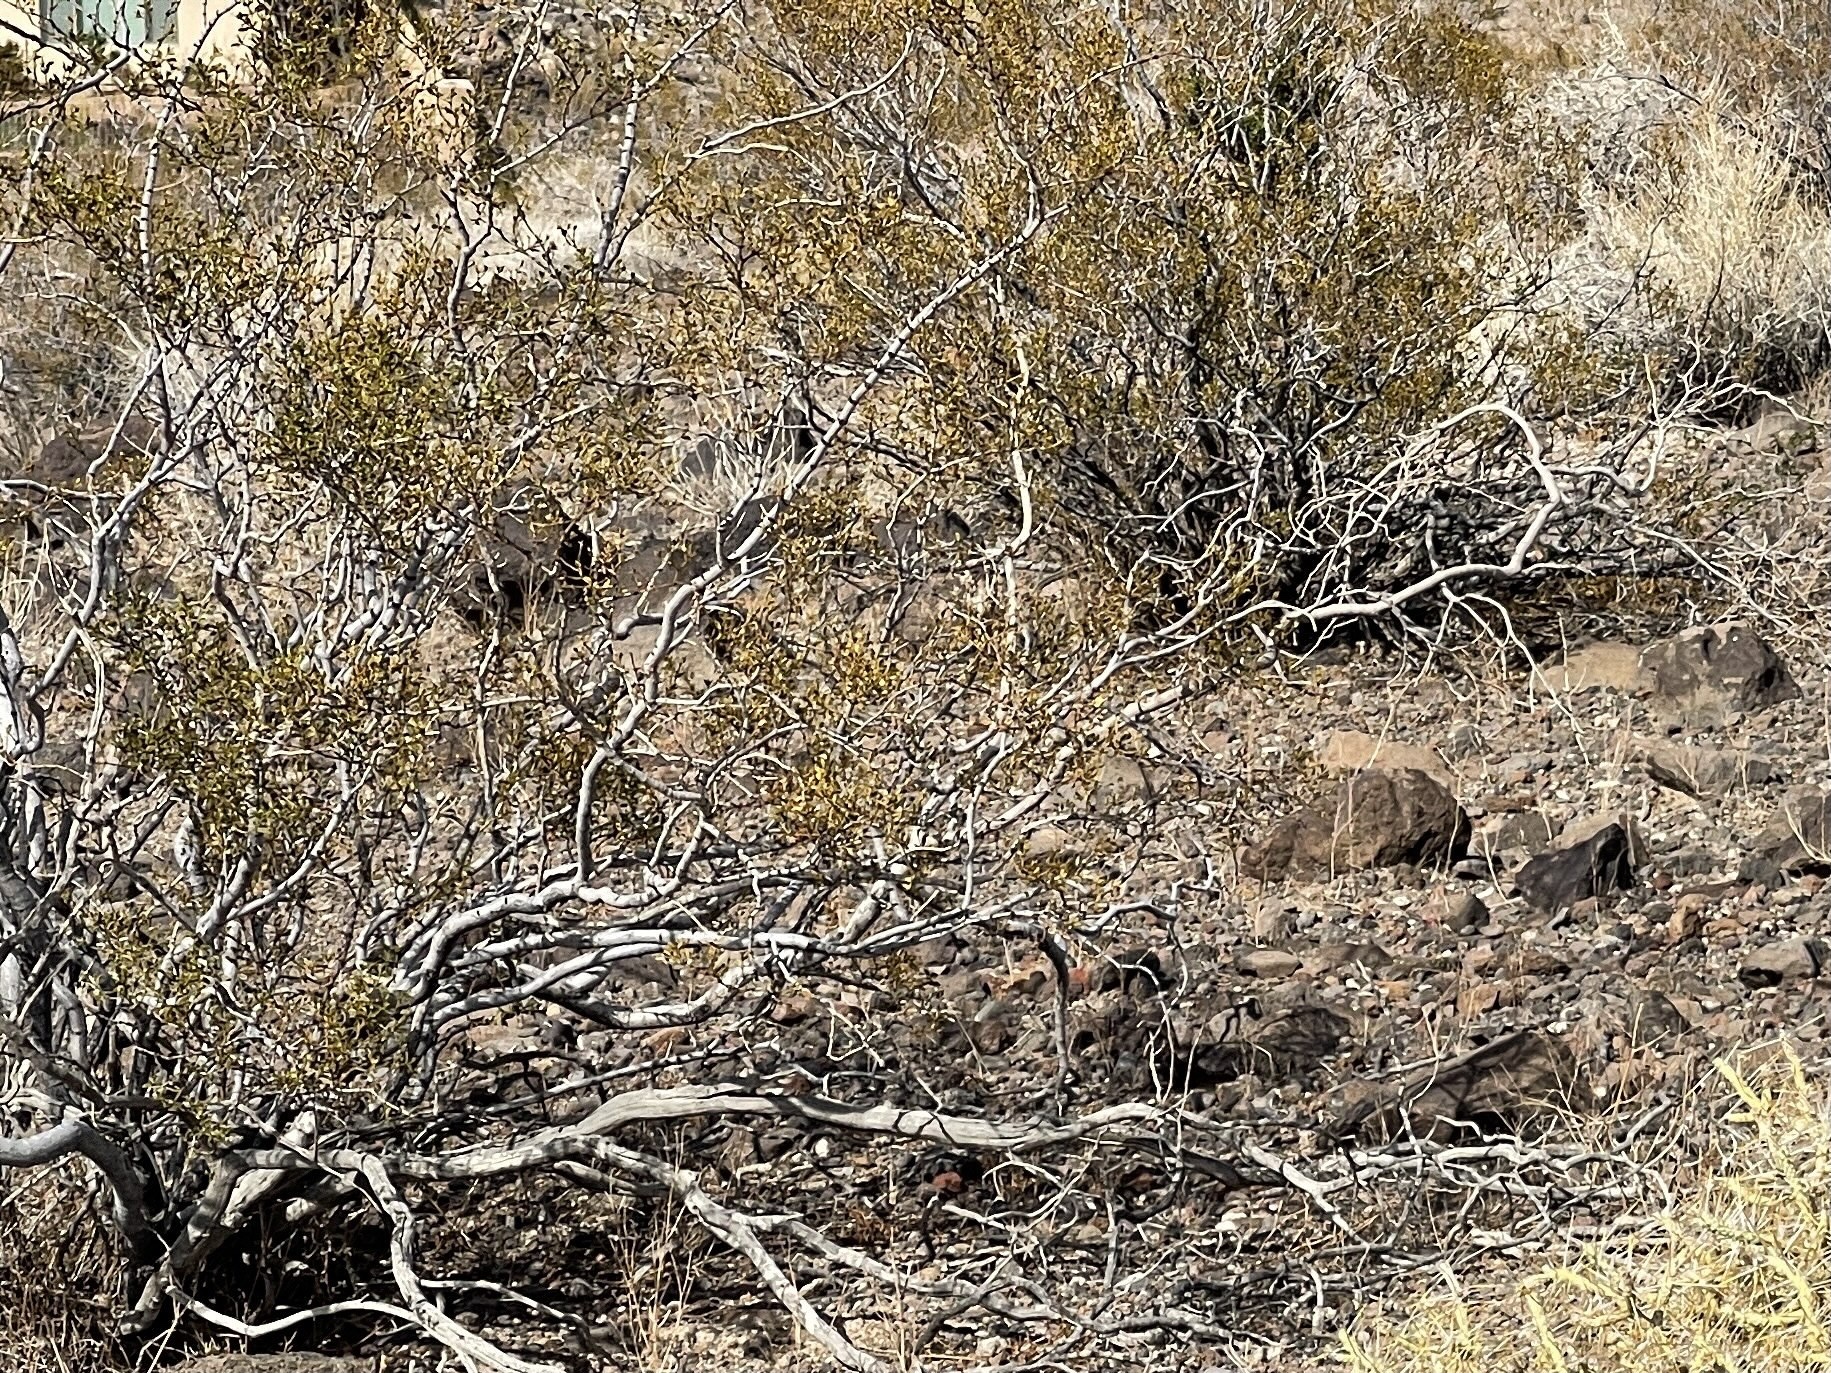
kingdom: Plantae
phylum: Tracheophyta
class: Magnoliopsida
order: Zygophyllales
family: Zygophyllaceae
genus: Larrea
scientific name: Larrea tridentata
